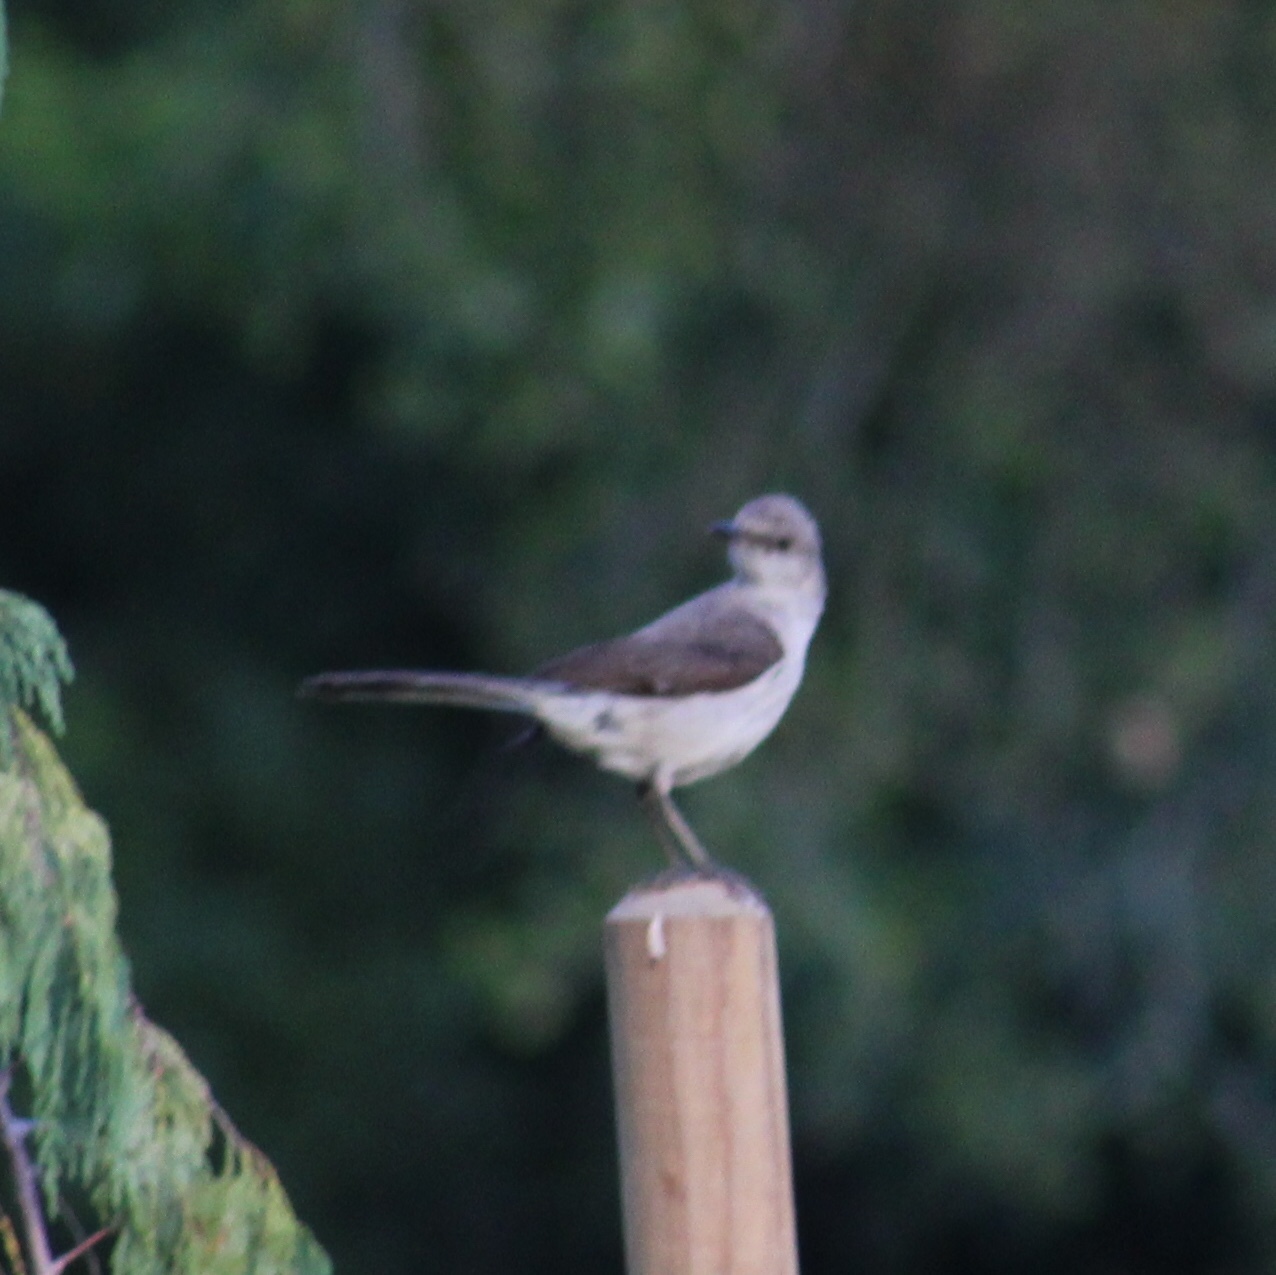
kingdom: Animalia
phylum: Chordata
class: Aves
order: Passeriformes
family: Mimidae
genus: Mimus
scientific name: Mimus polyglottos
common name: Northern mockingbird
